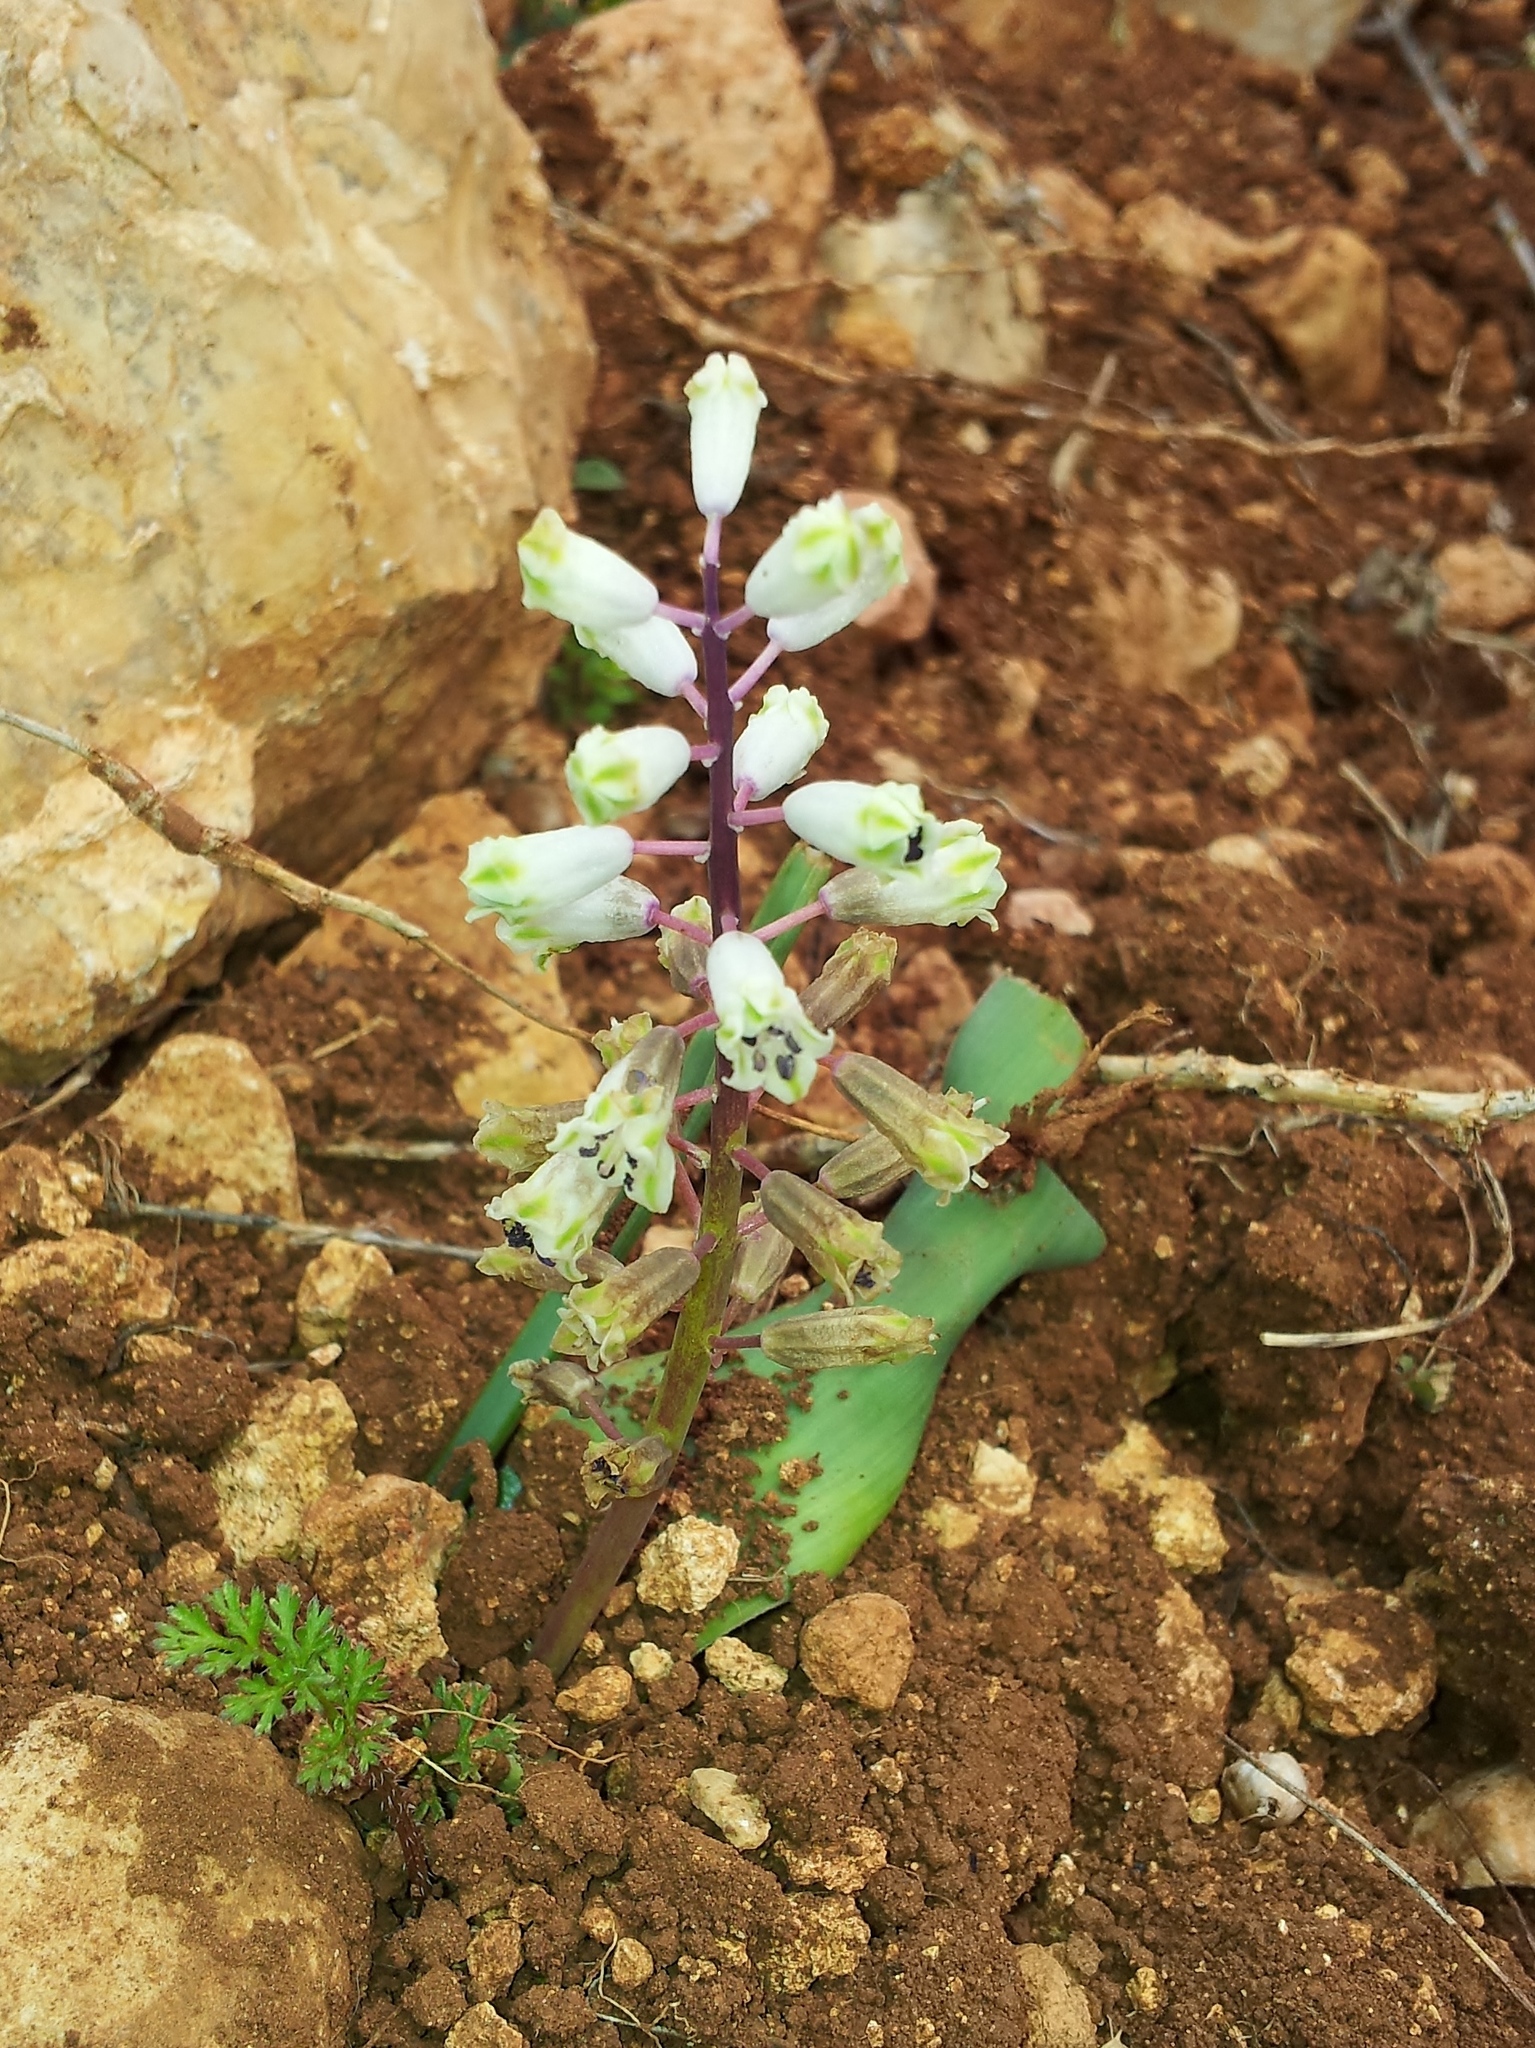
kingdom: Plantae
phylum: Tracheophyta
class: Liliopsida
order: Asparagales
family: Asparagaceae
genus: Bellevalia
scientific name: Bellevalia flexuosa
